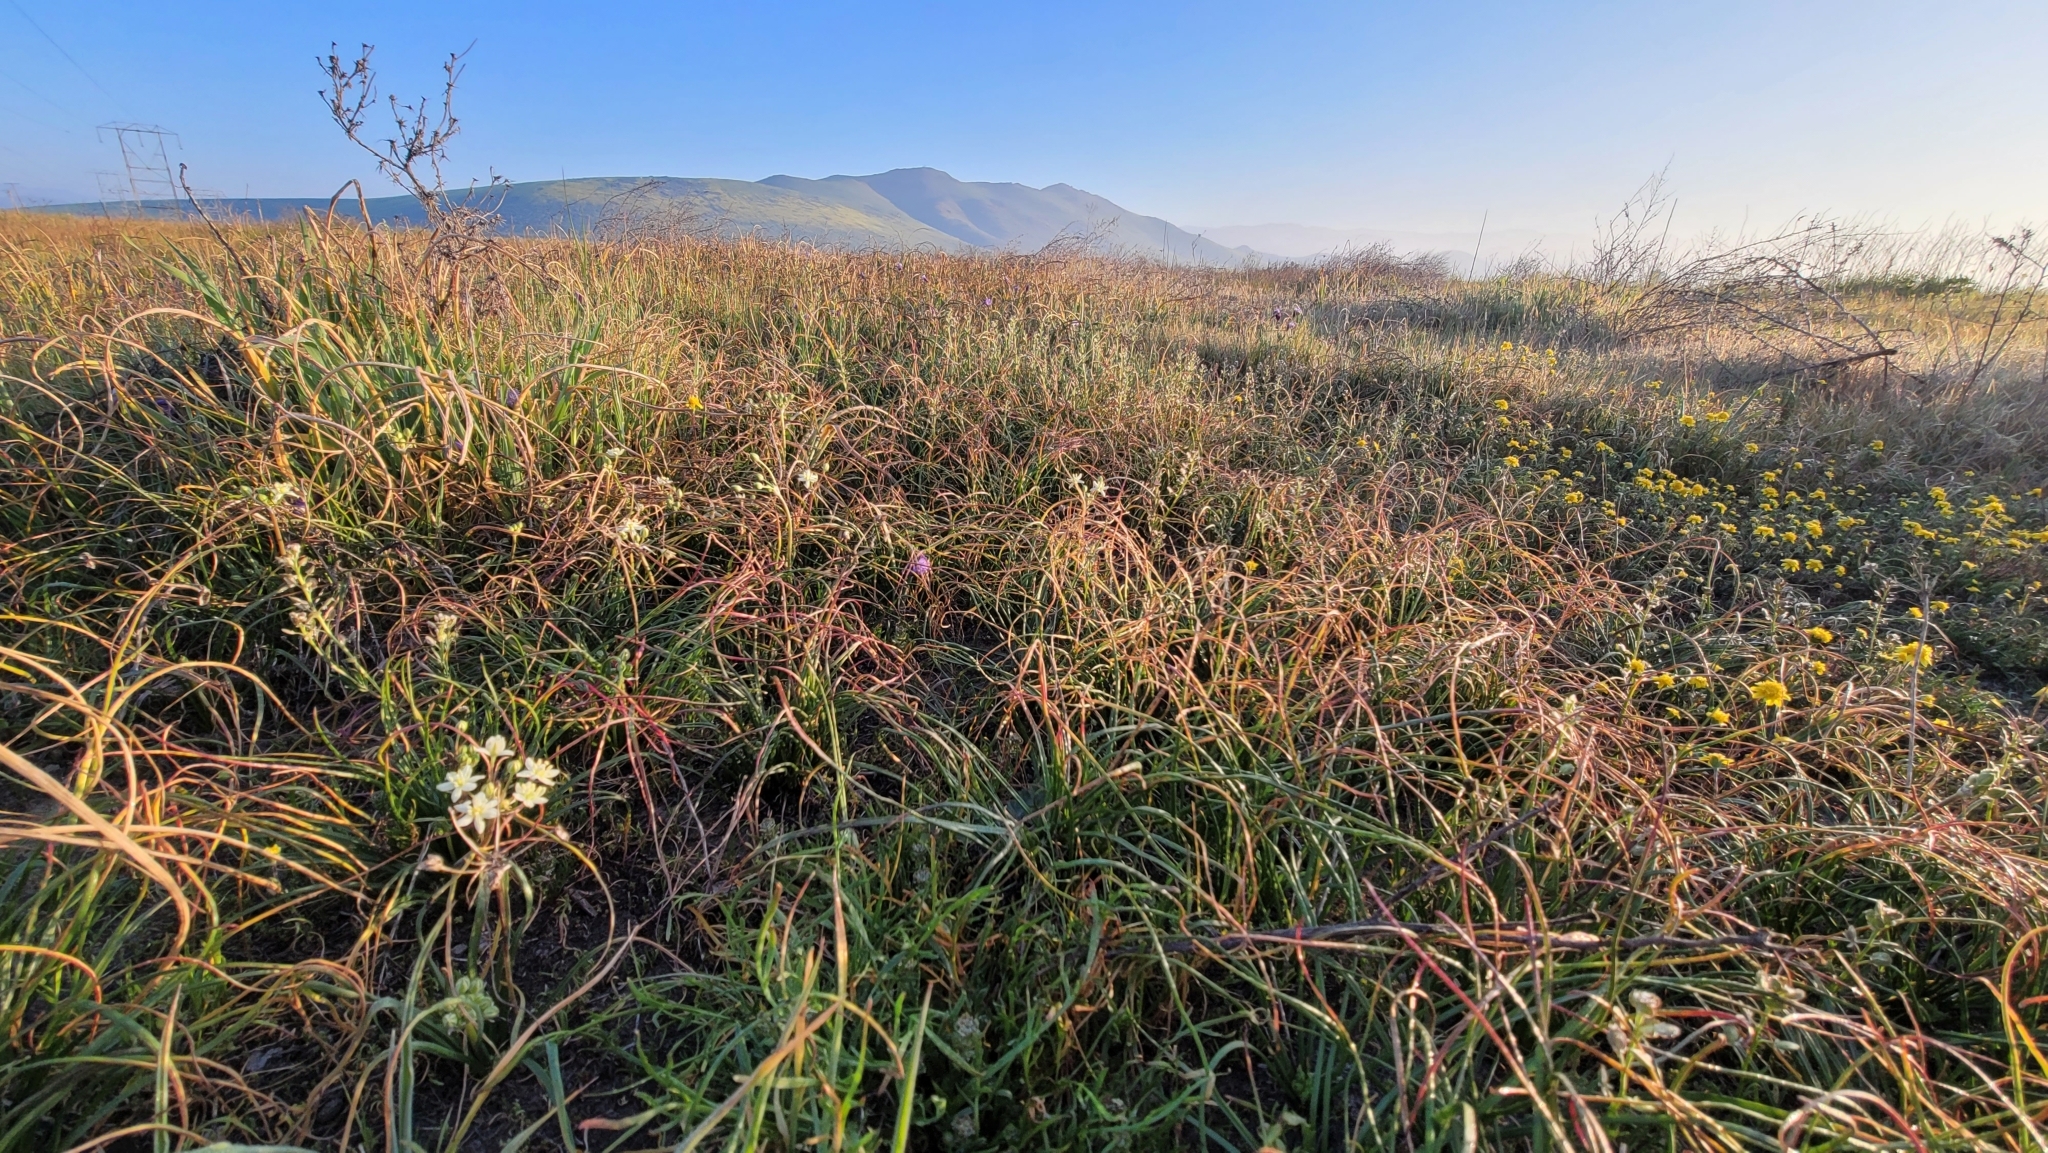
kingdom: Plantae
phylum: Tracheophyta
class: Liliopsida
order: Asparagales
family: Asparagaceae
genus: Muilla
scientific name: Muilla maritima
